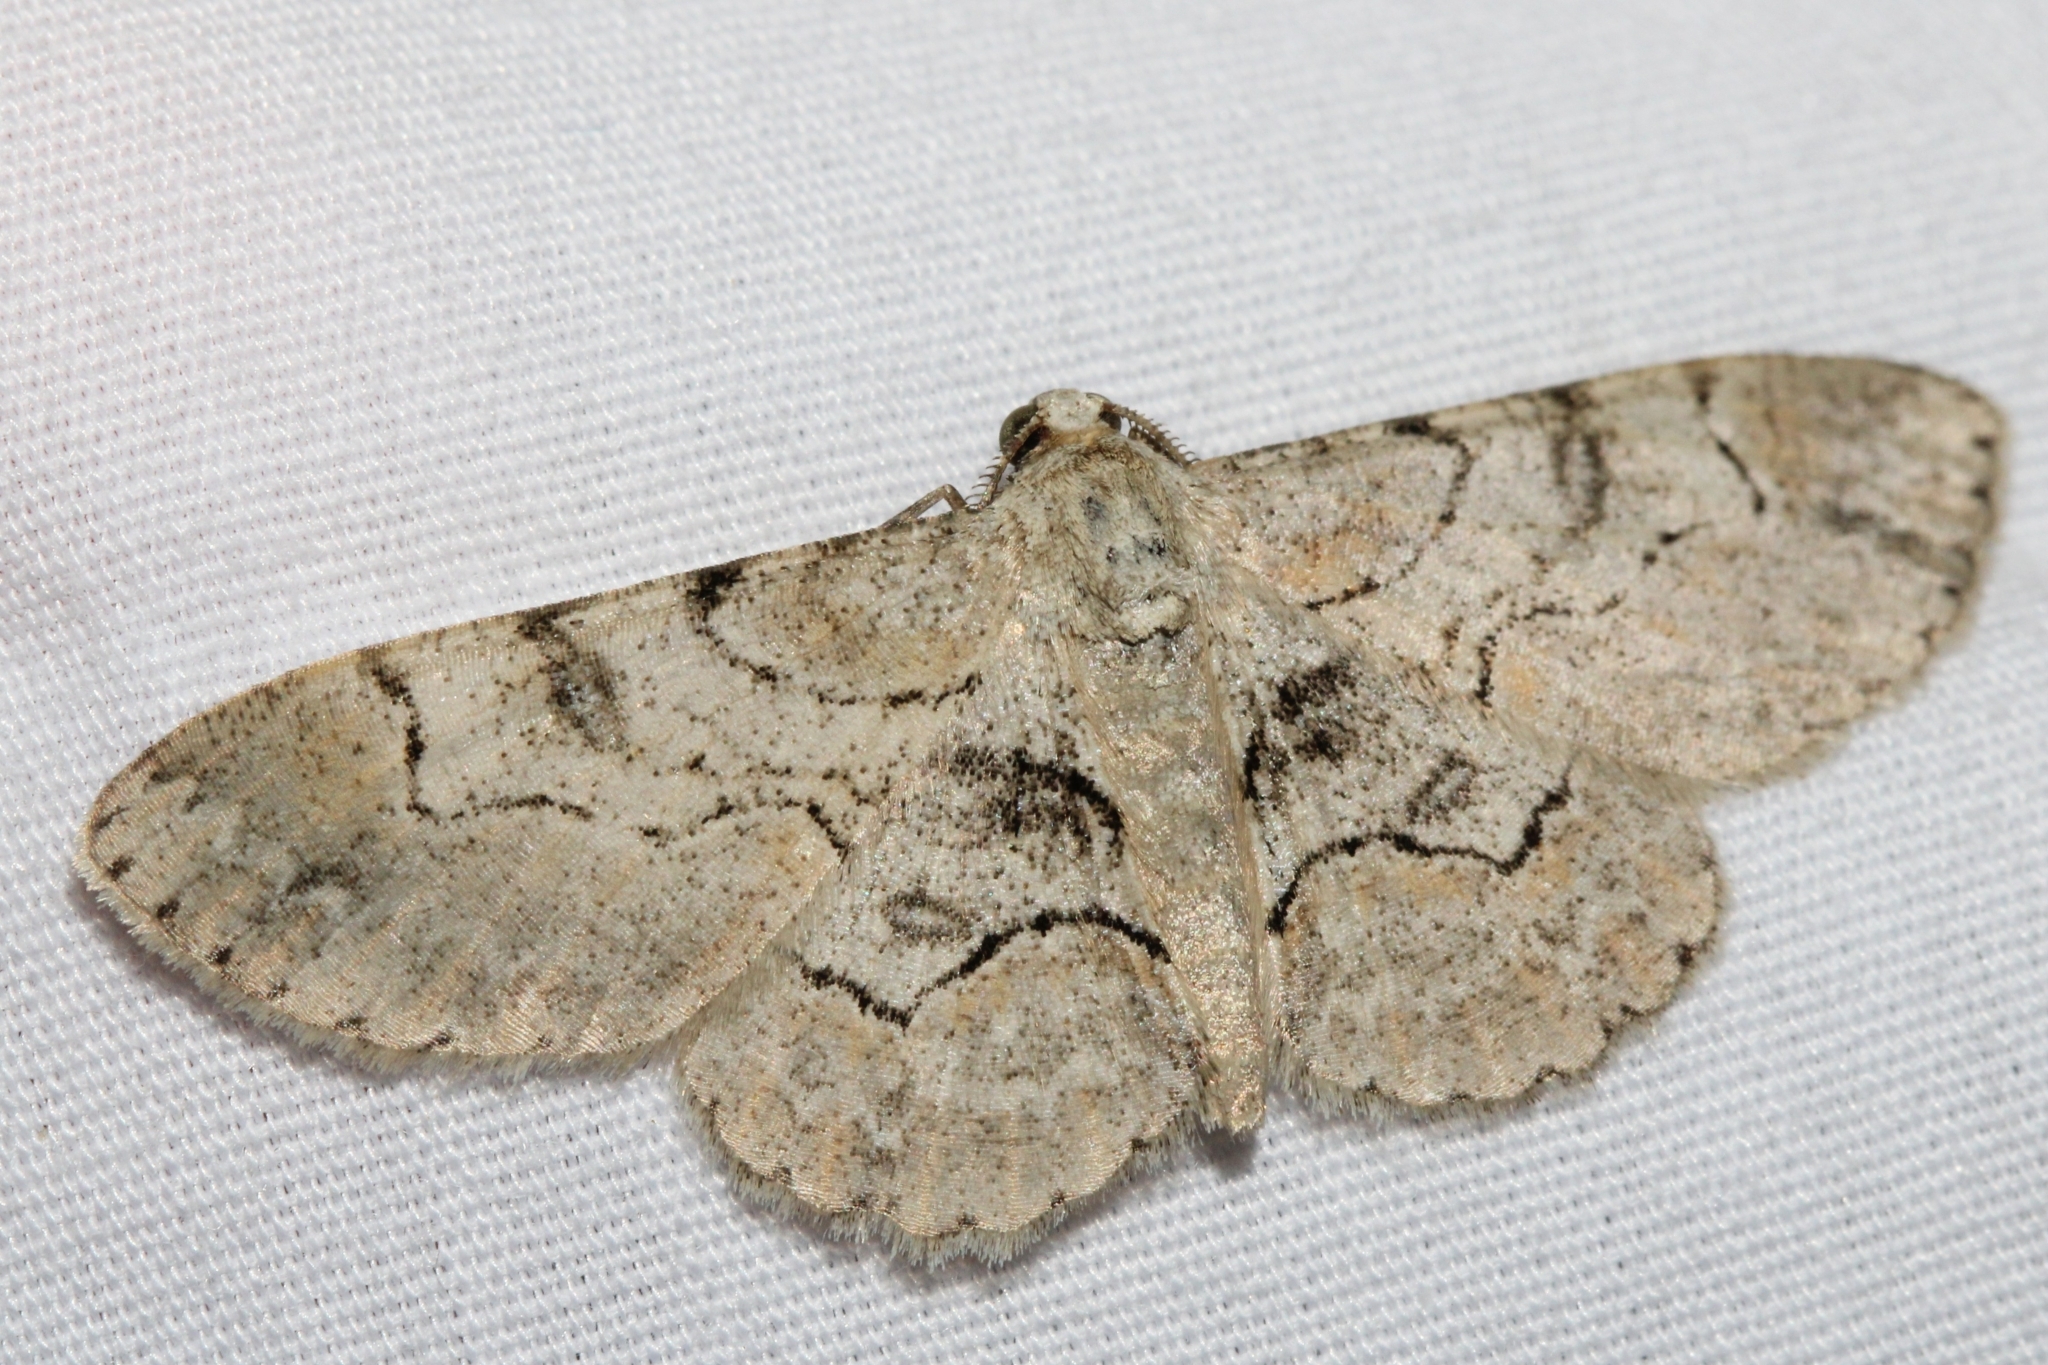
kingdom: Animalia
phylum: Arthropoda
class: Insecta
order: Lepidoptera
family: Geometridae
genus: Iridopsis
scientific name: Iridopsis larvaria
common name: Bent-line gray
